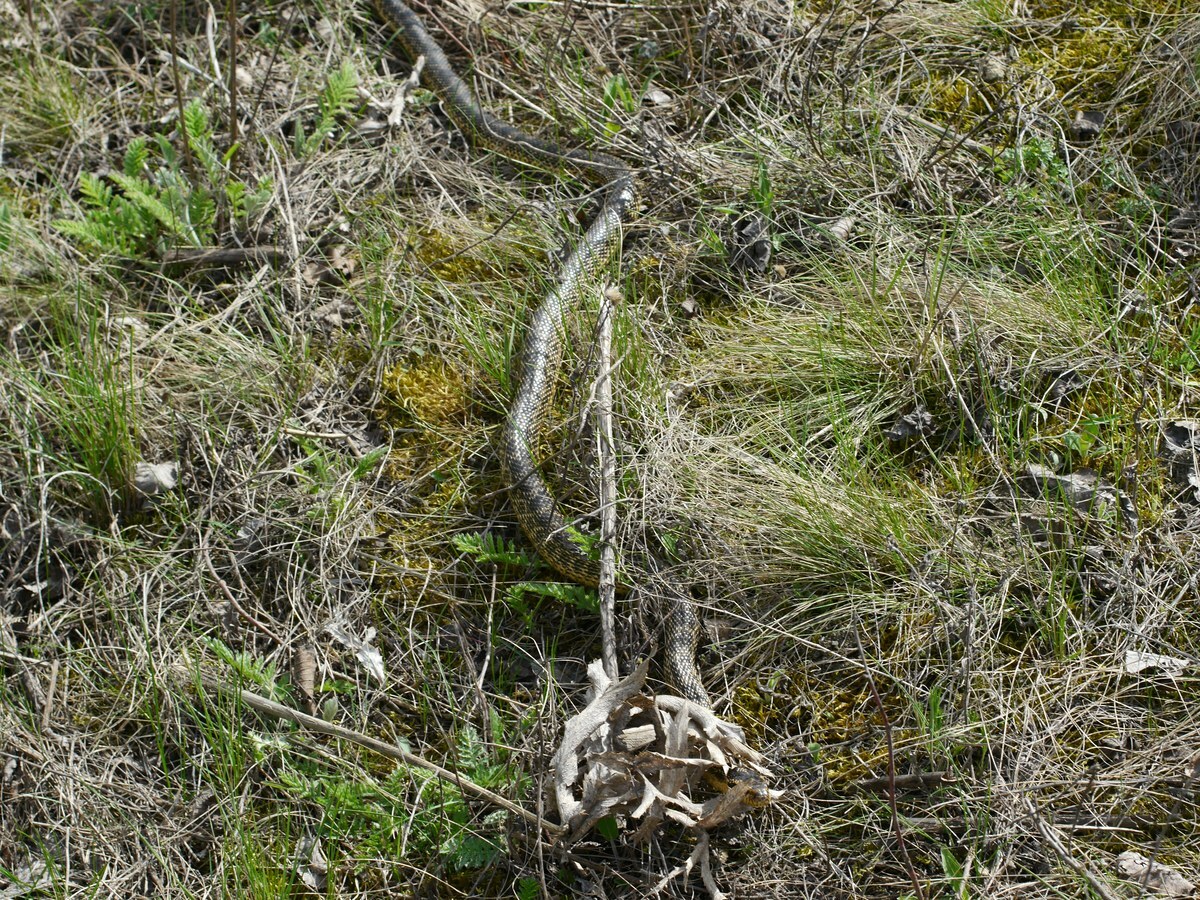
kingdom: Animalia
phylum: Chordata
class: Squamata
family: Colubridae
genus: Elaphe
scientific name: Elaphe sauromates
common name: Eastern four-lined ratsnake
